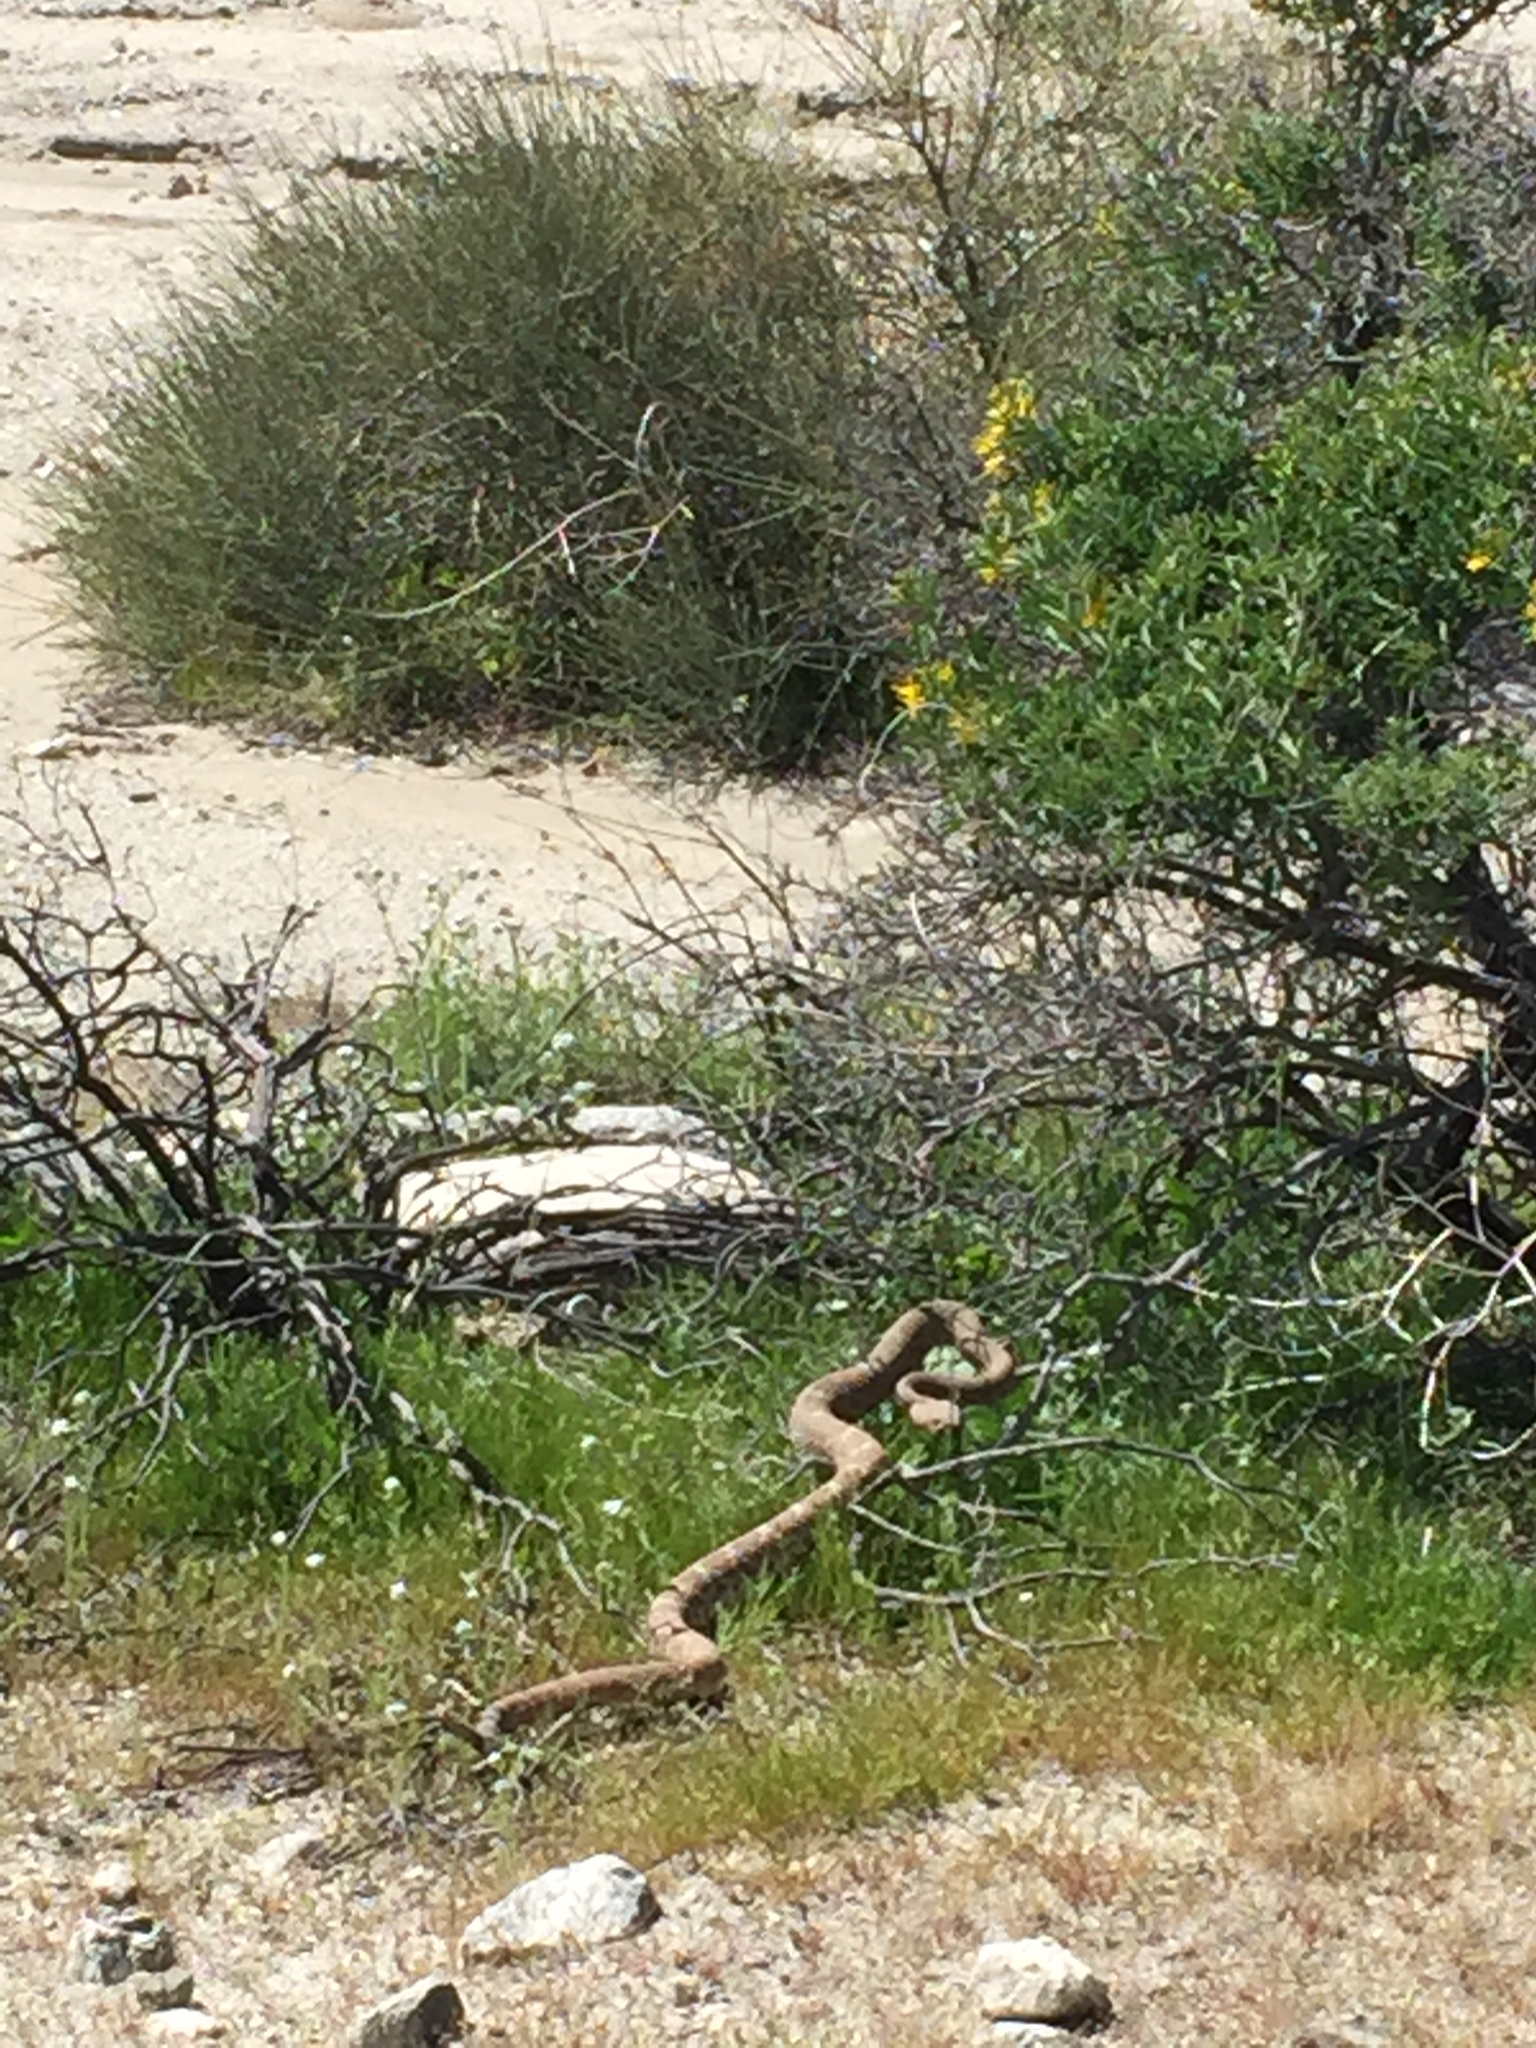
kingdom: Animalia
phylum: Chordata
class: Squamata
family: Viperidae
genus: Crotalus
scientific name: Crotalus ruber
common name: Red diamond rattlesnake
